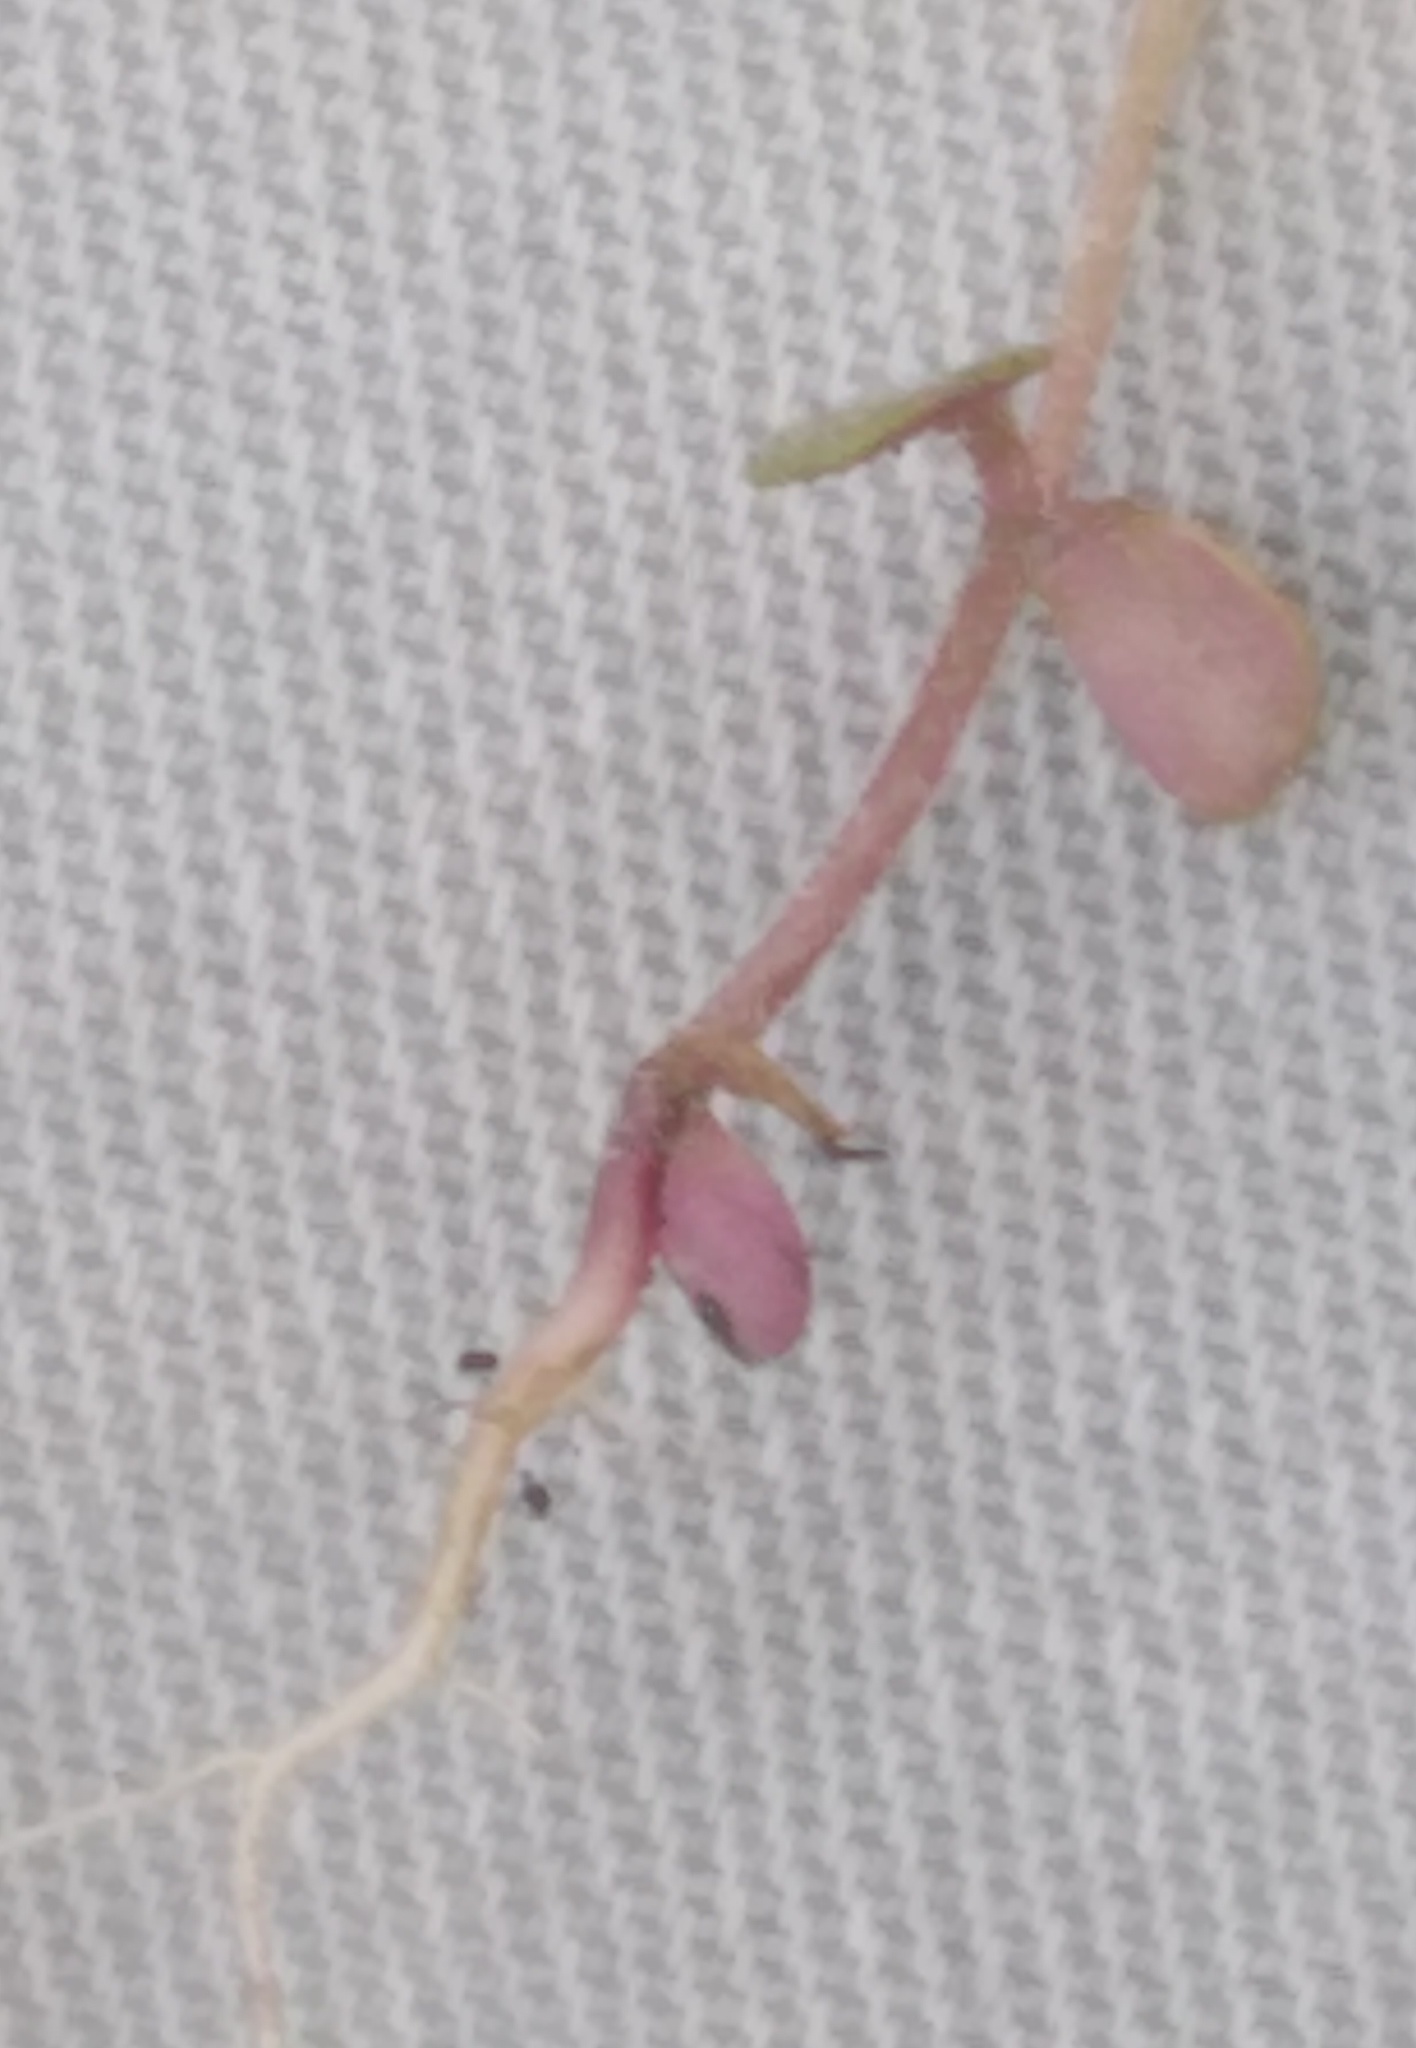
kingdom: Plantae
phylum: Tracheophyta
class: Magnoliopsida
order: Lamiales
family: Plantaginaceae
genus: Veronica
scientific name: Veronica verna
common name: Spring speedwell
